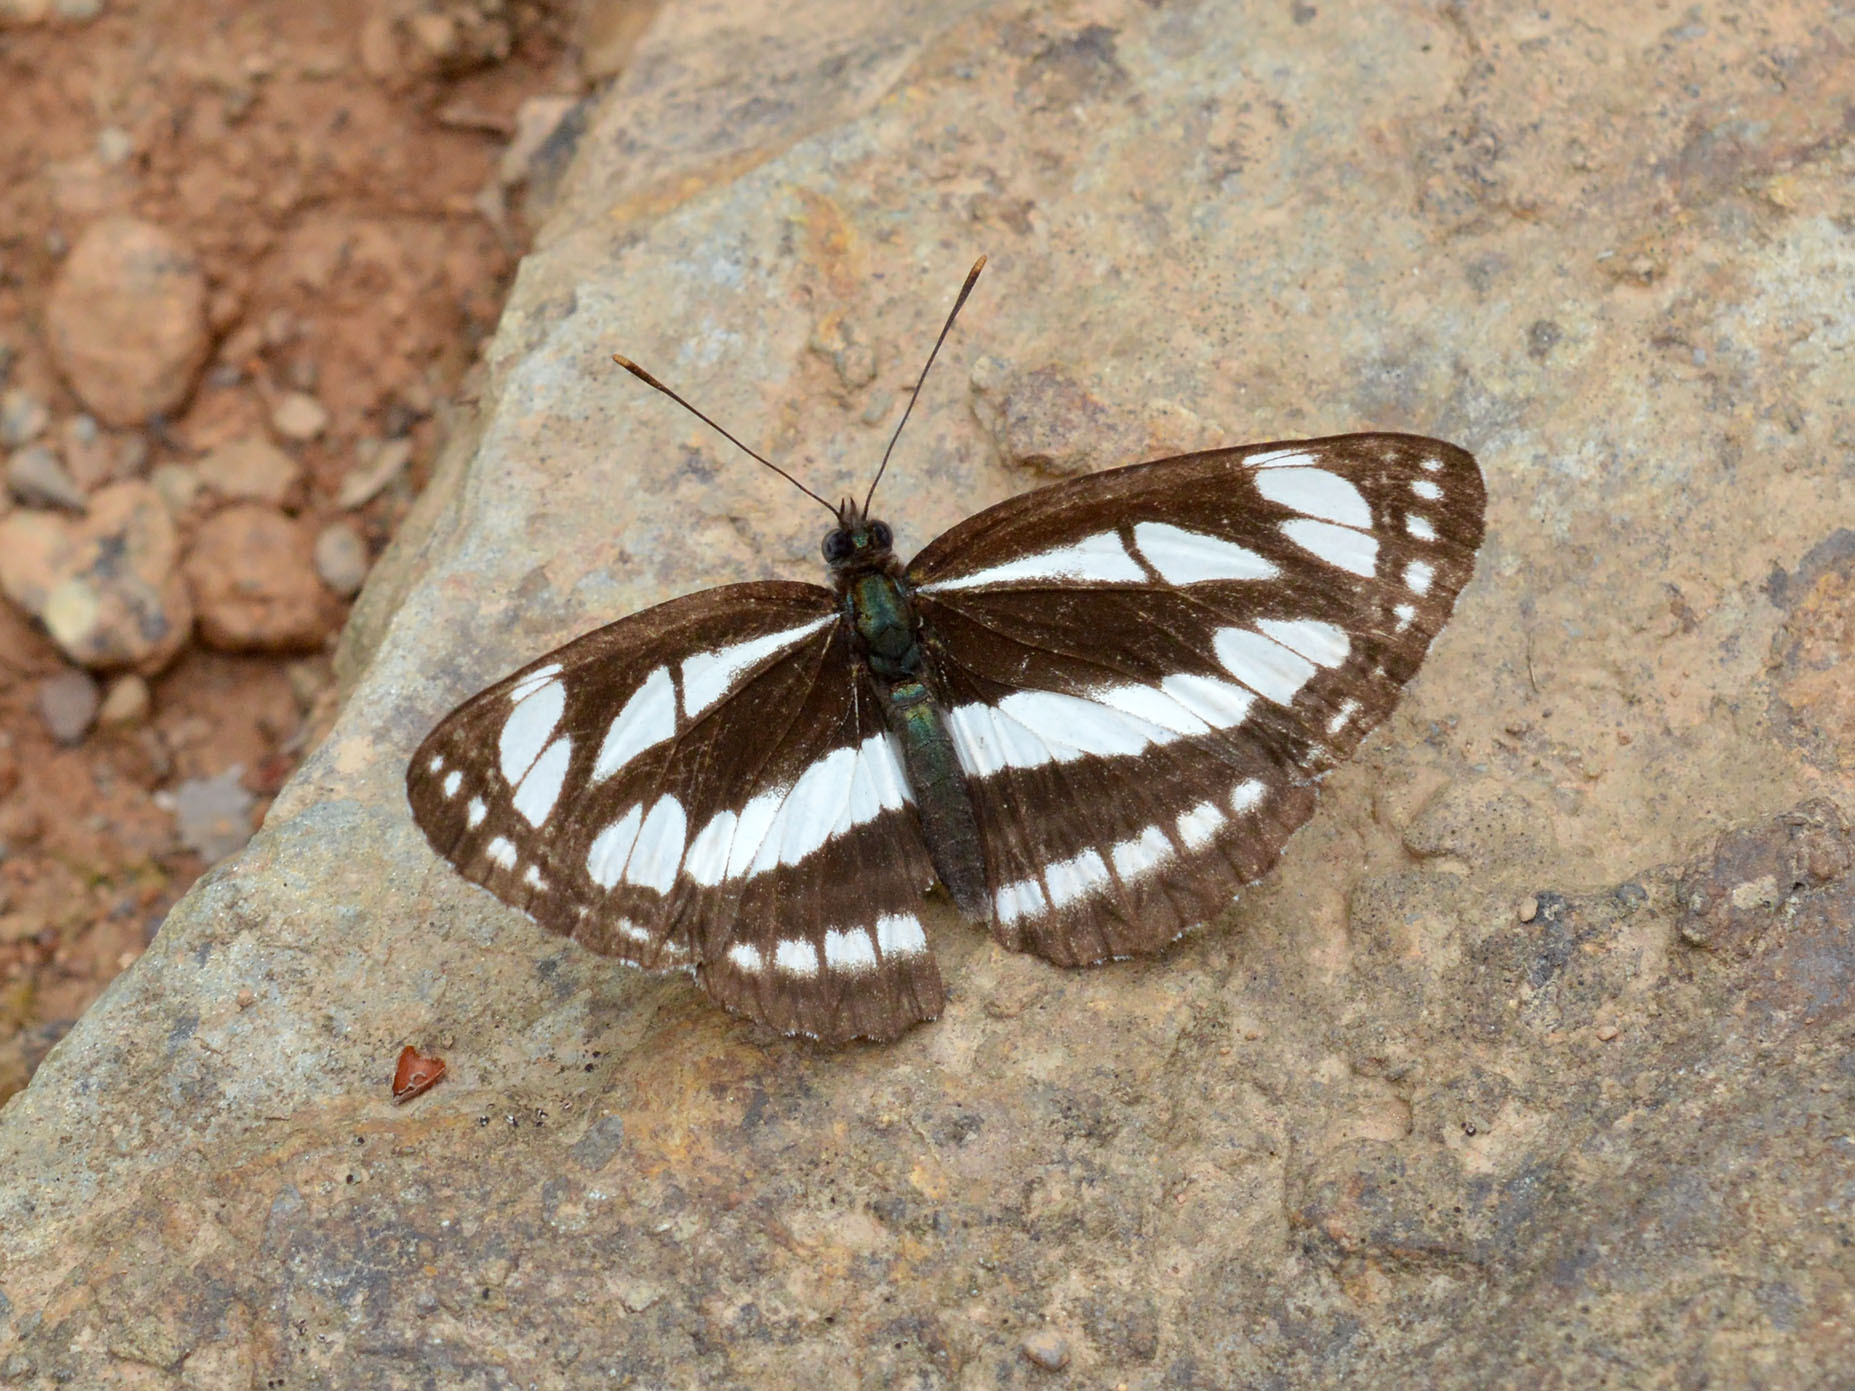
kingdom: Animalia
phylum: Arthropoda
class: Insecta
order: Lepidoptera
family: Nymphalidae
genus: Neptis
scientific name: Neptis sappho
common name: Common glider
